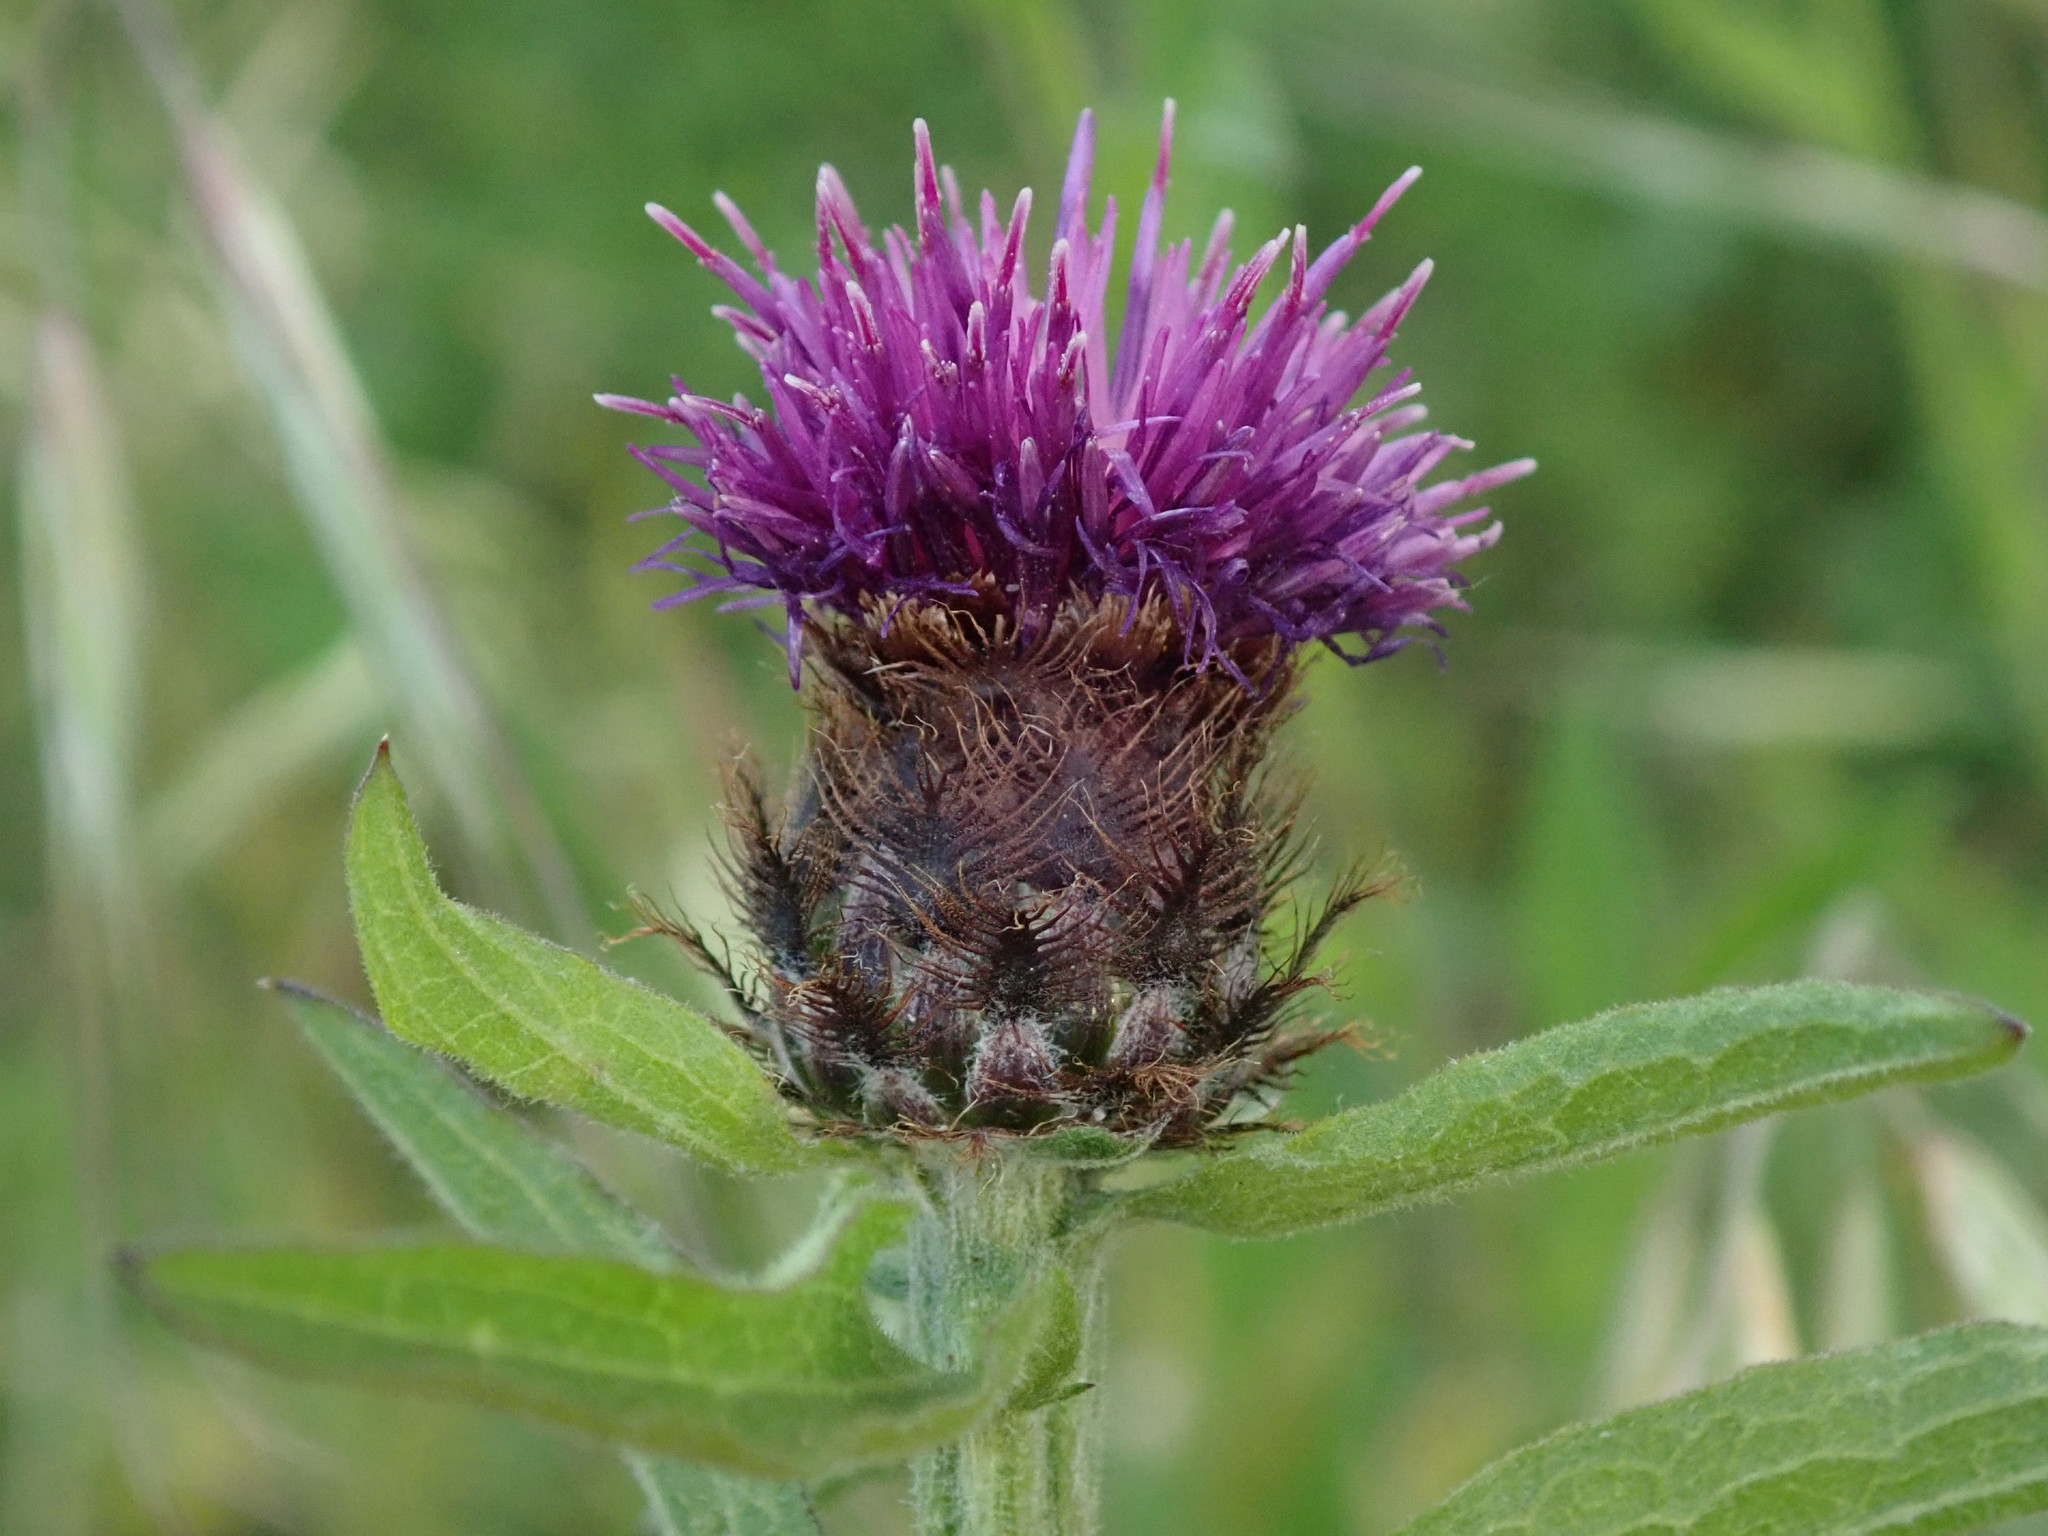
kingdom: Plantae
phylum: Tracheophyta
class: Magnoliopsida
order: Asterales
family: Asteraceae
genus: Centaurea
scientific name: Centaurea nigra
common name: Lesser knapweed
